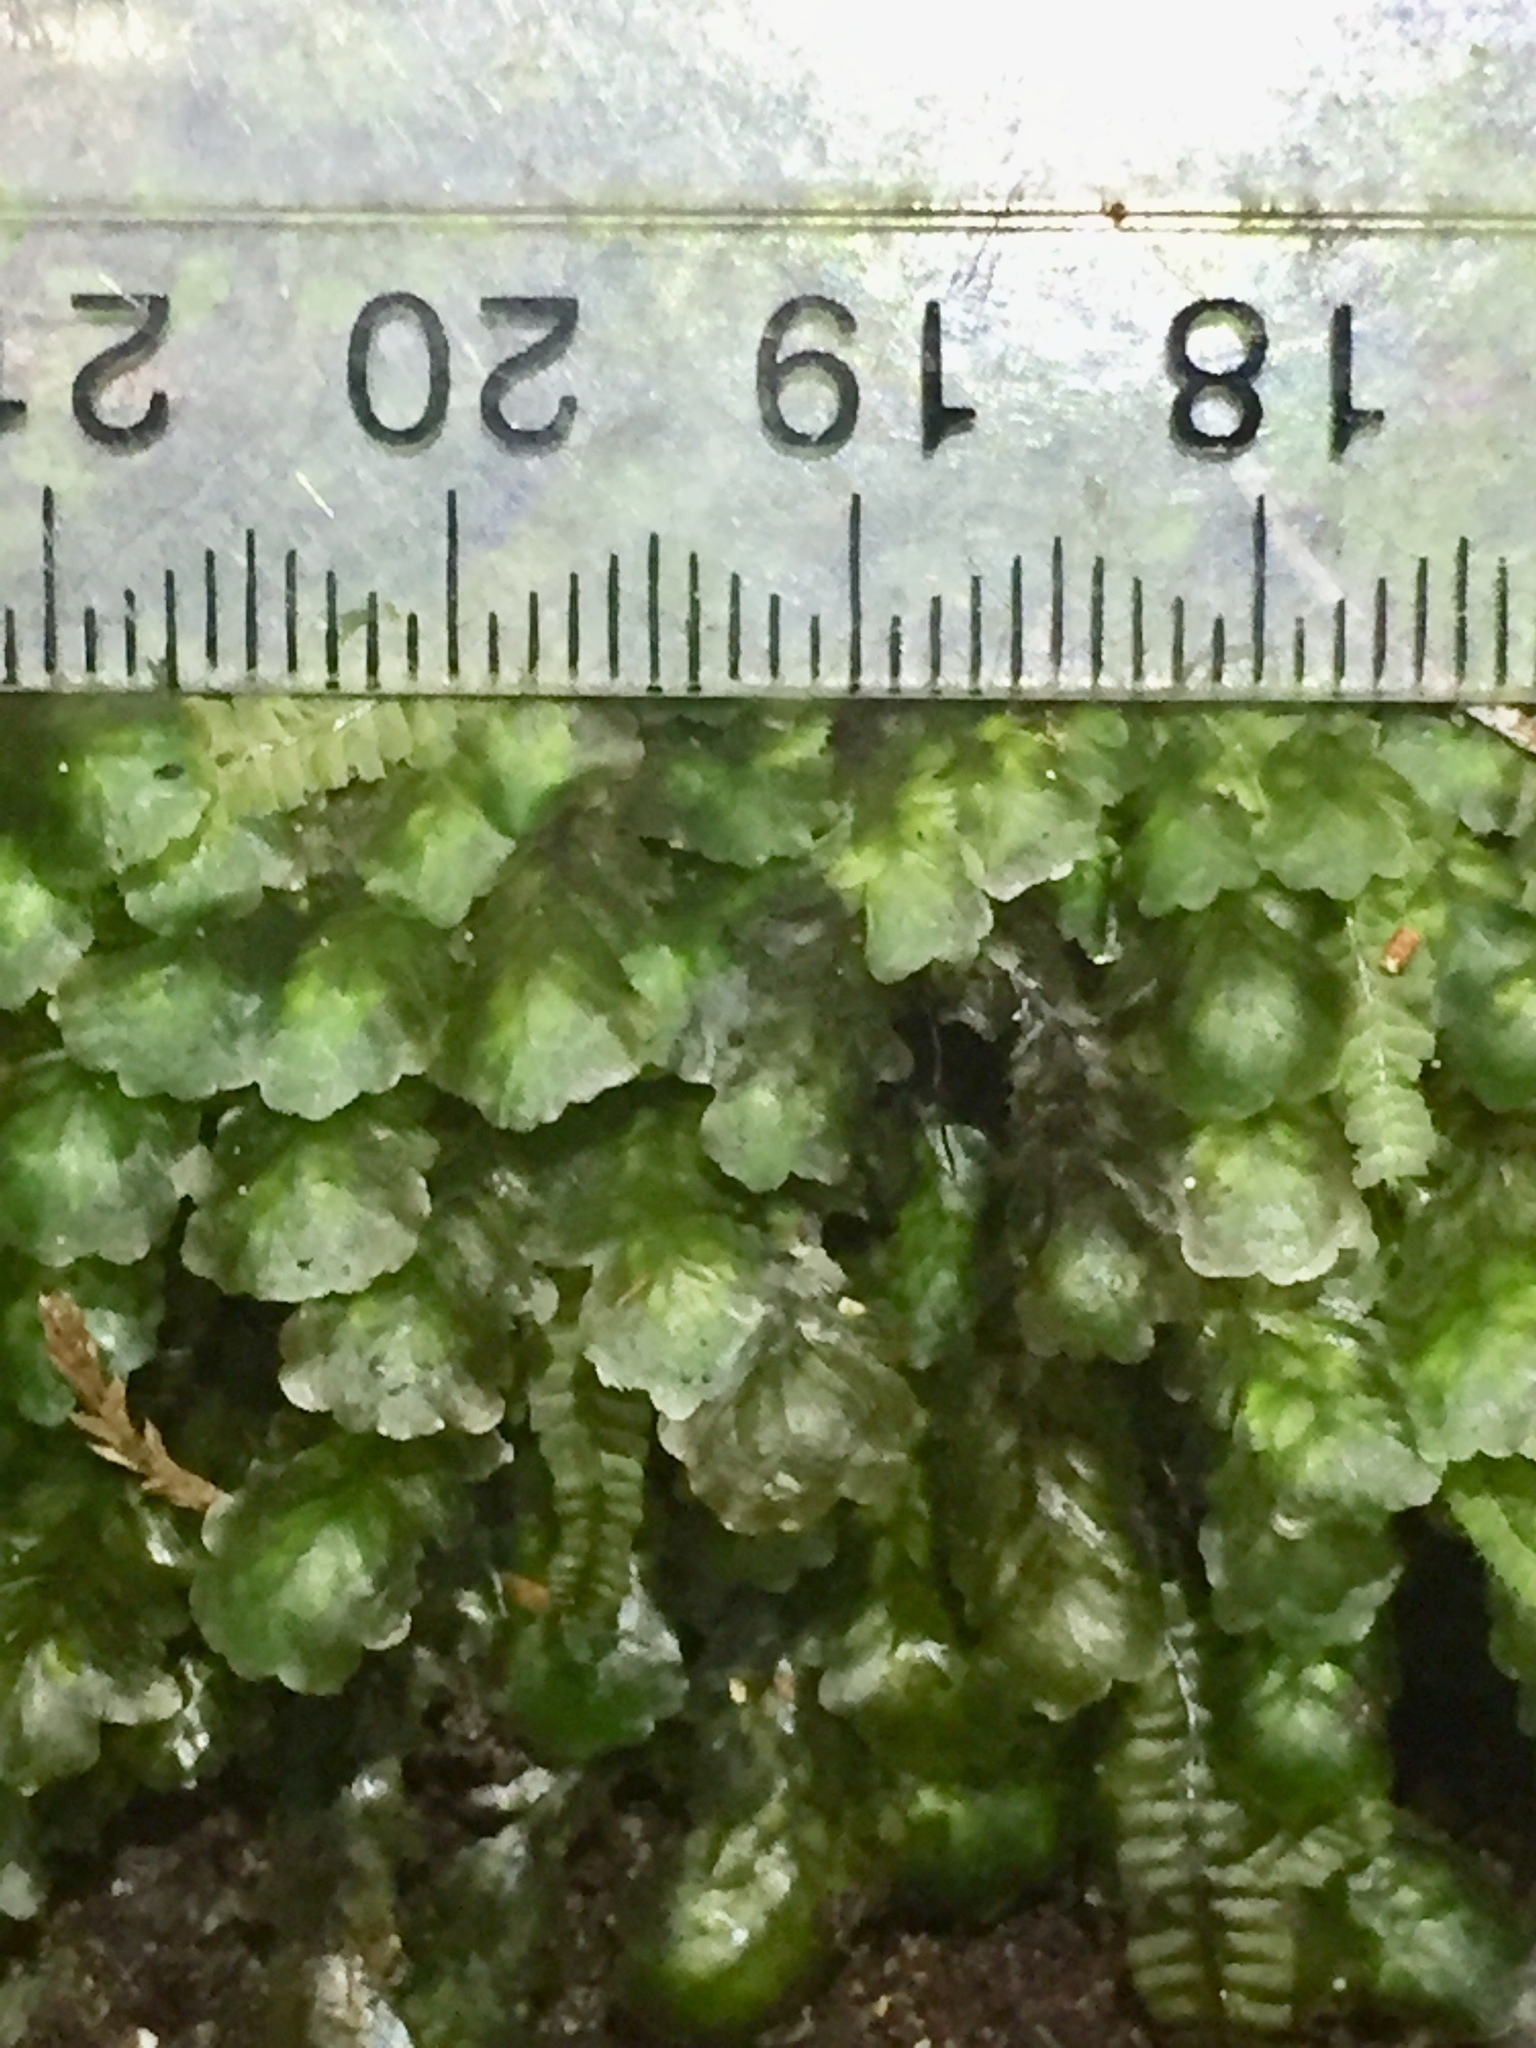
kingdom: Plantae
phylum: Bryophyta
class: Bryopsida
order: Hookeriales
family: Daltoniaceae
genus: Distichophyllum
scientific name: Distichophyllum microcarpon
